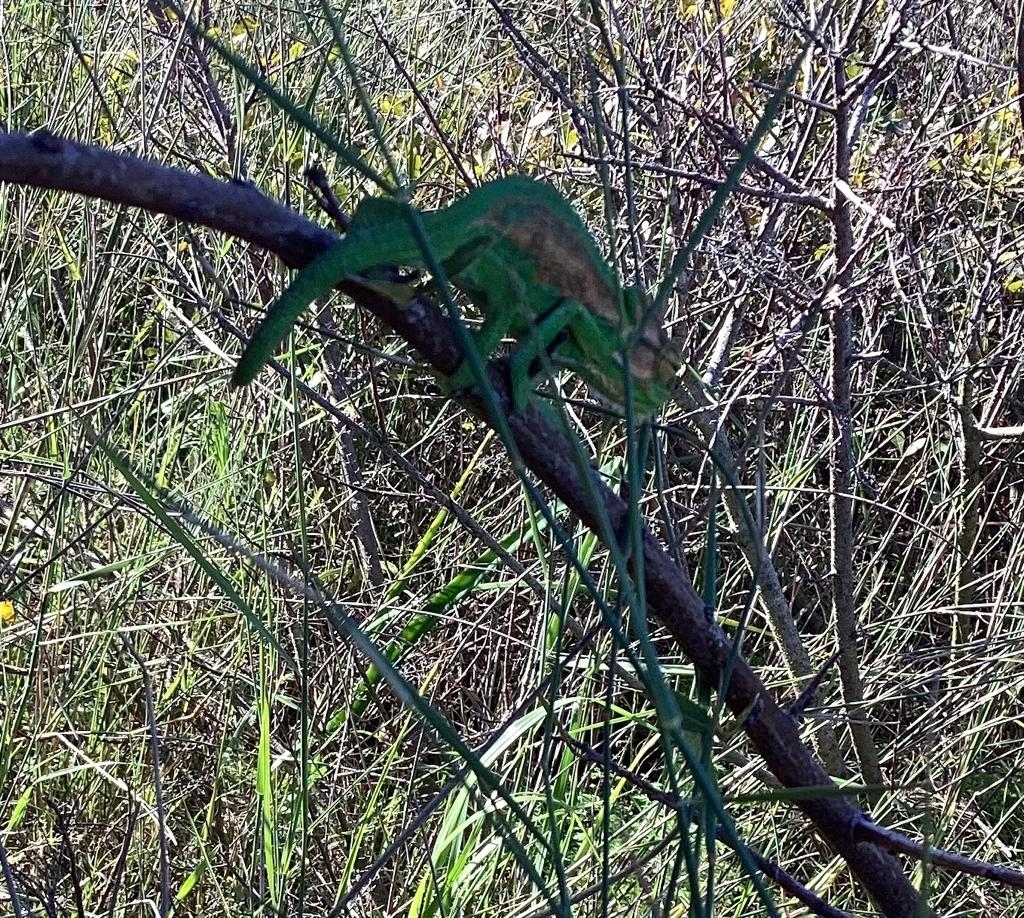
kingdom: Animalia
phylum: Chordata
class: Squamata
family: Chamaeleonidae
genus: Bradypodion
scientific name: Bradypodion pumilum
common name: Cape dwarf chameleon
